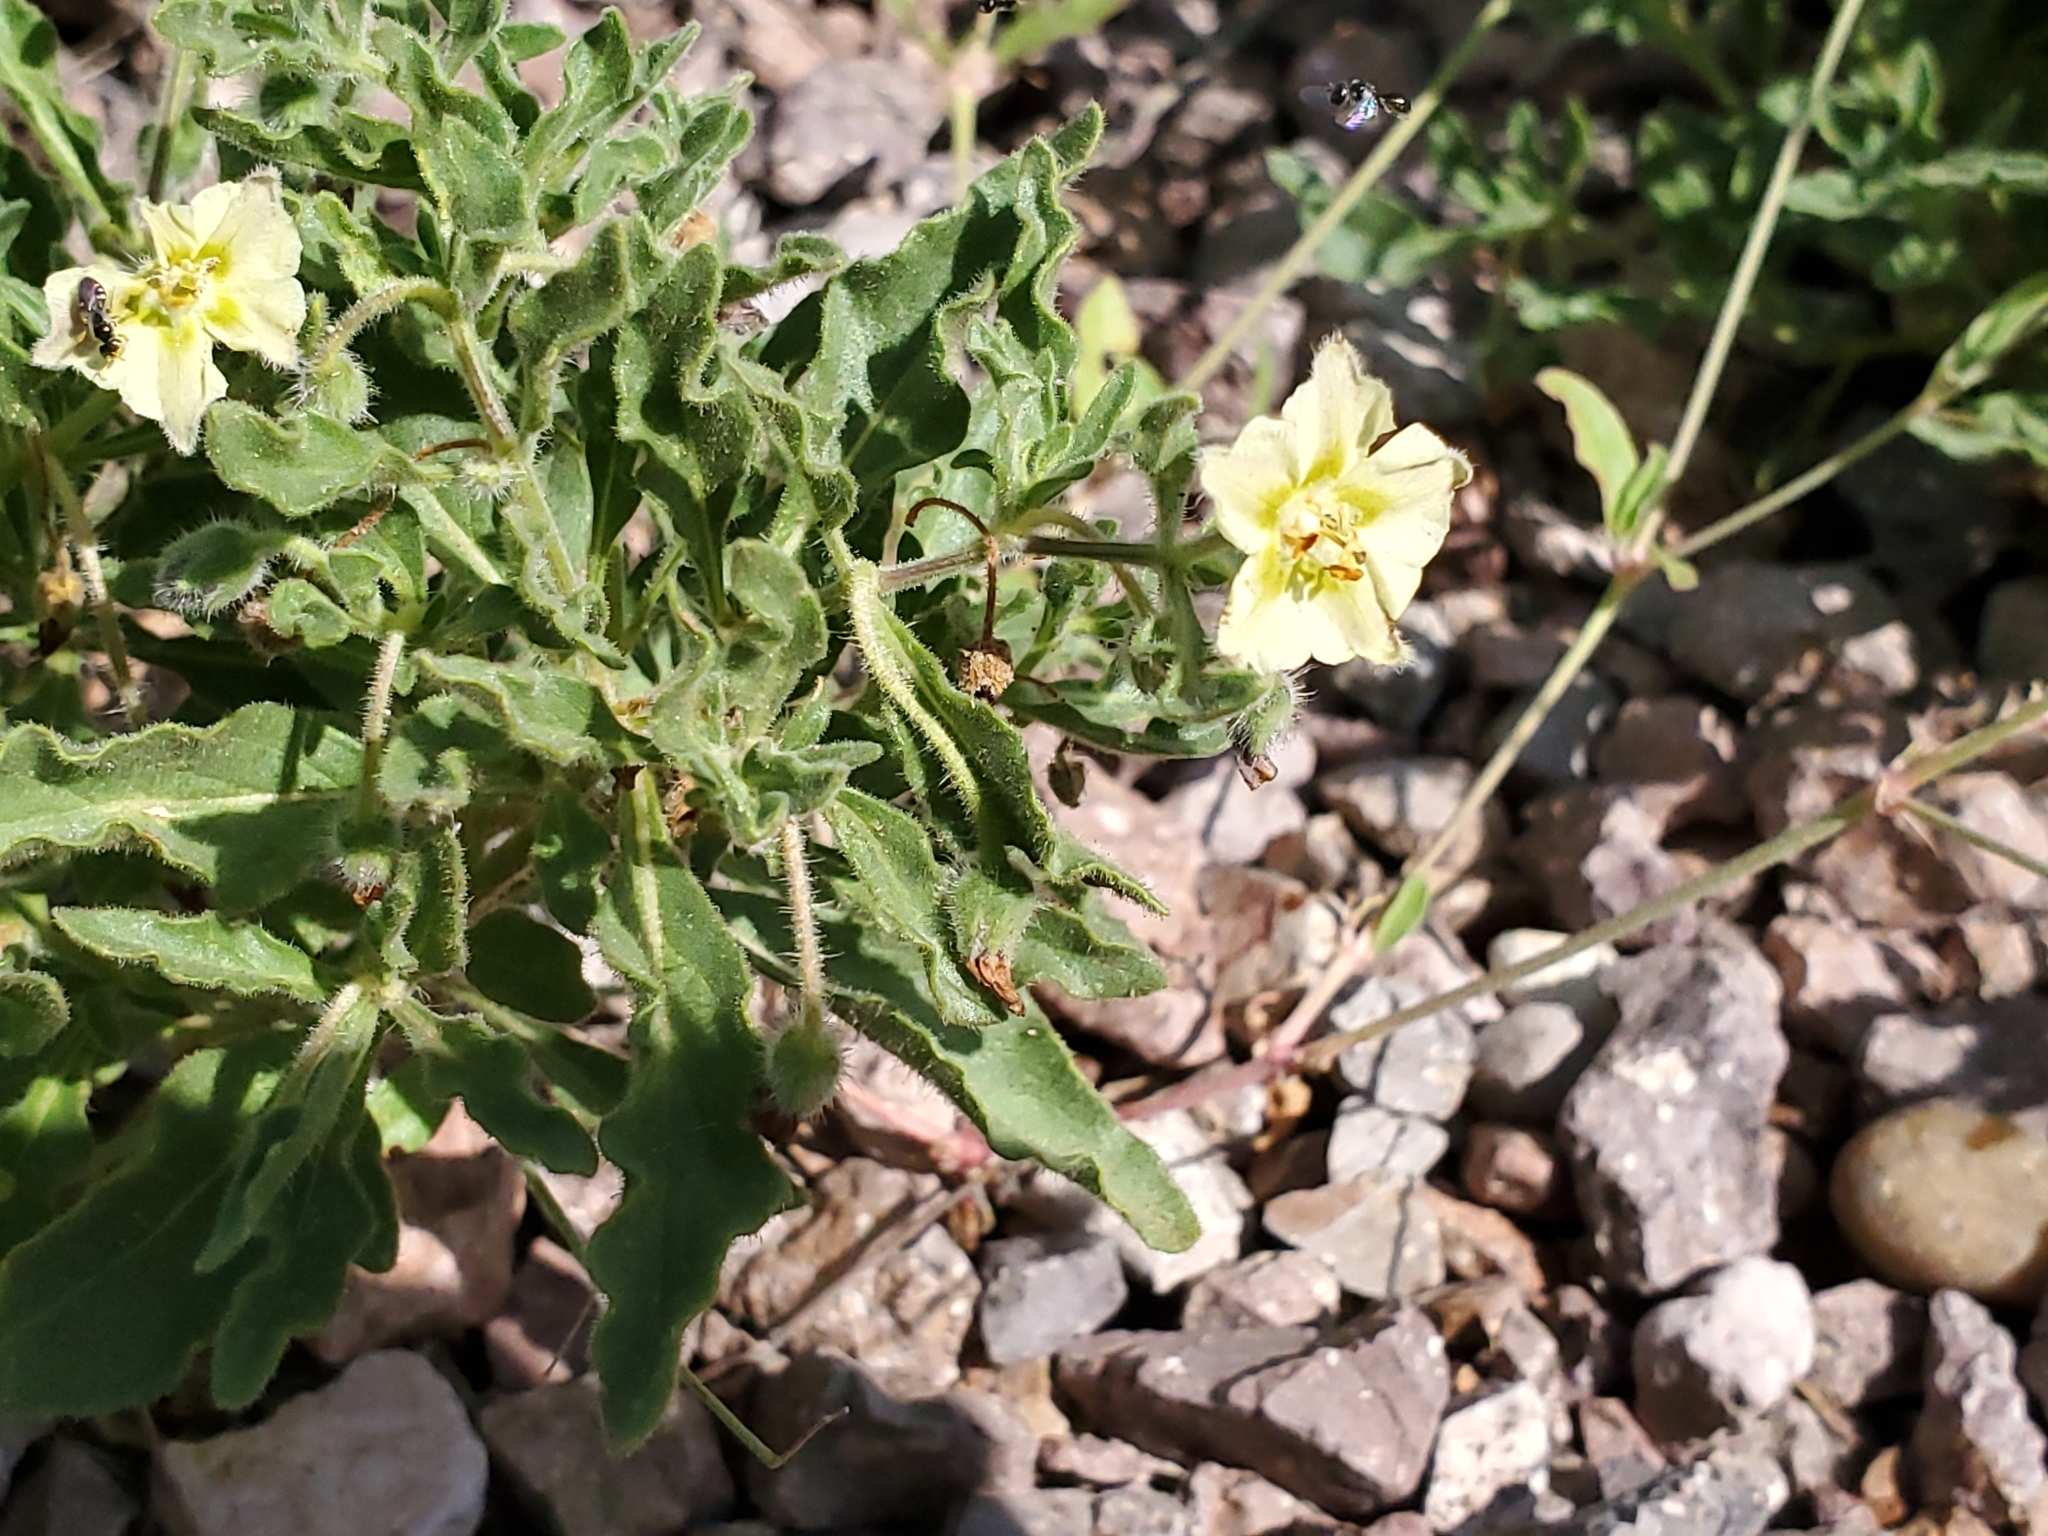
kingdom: Plantae
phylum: Tracheophyta
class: Magnoliopsida
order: Solanales
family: Solanaceae
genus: Chamaesaracha
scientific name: Chamaesaracha sordida
